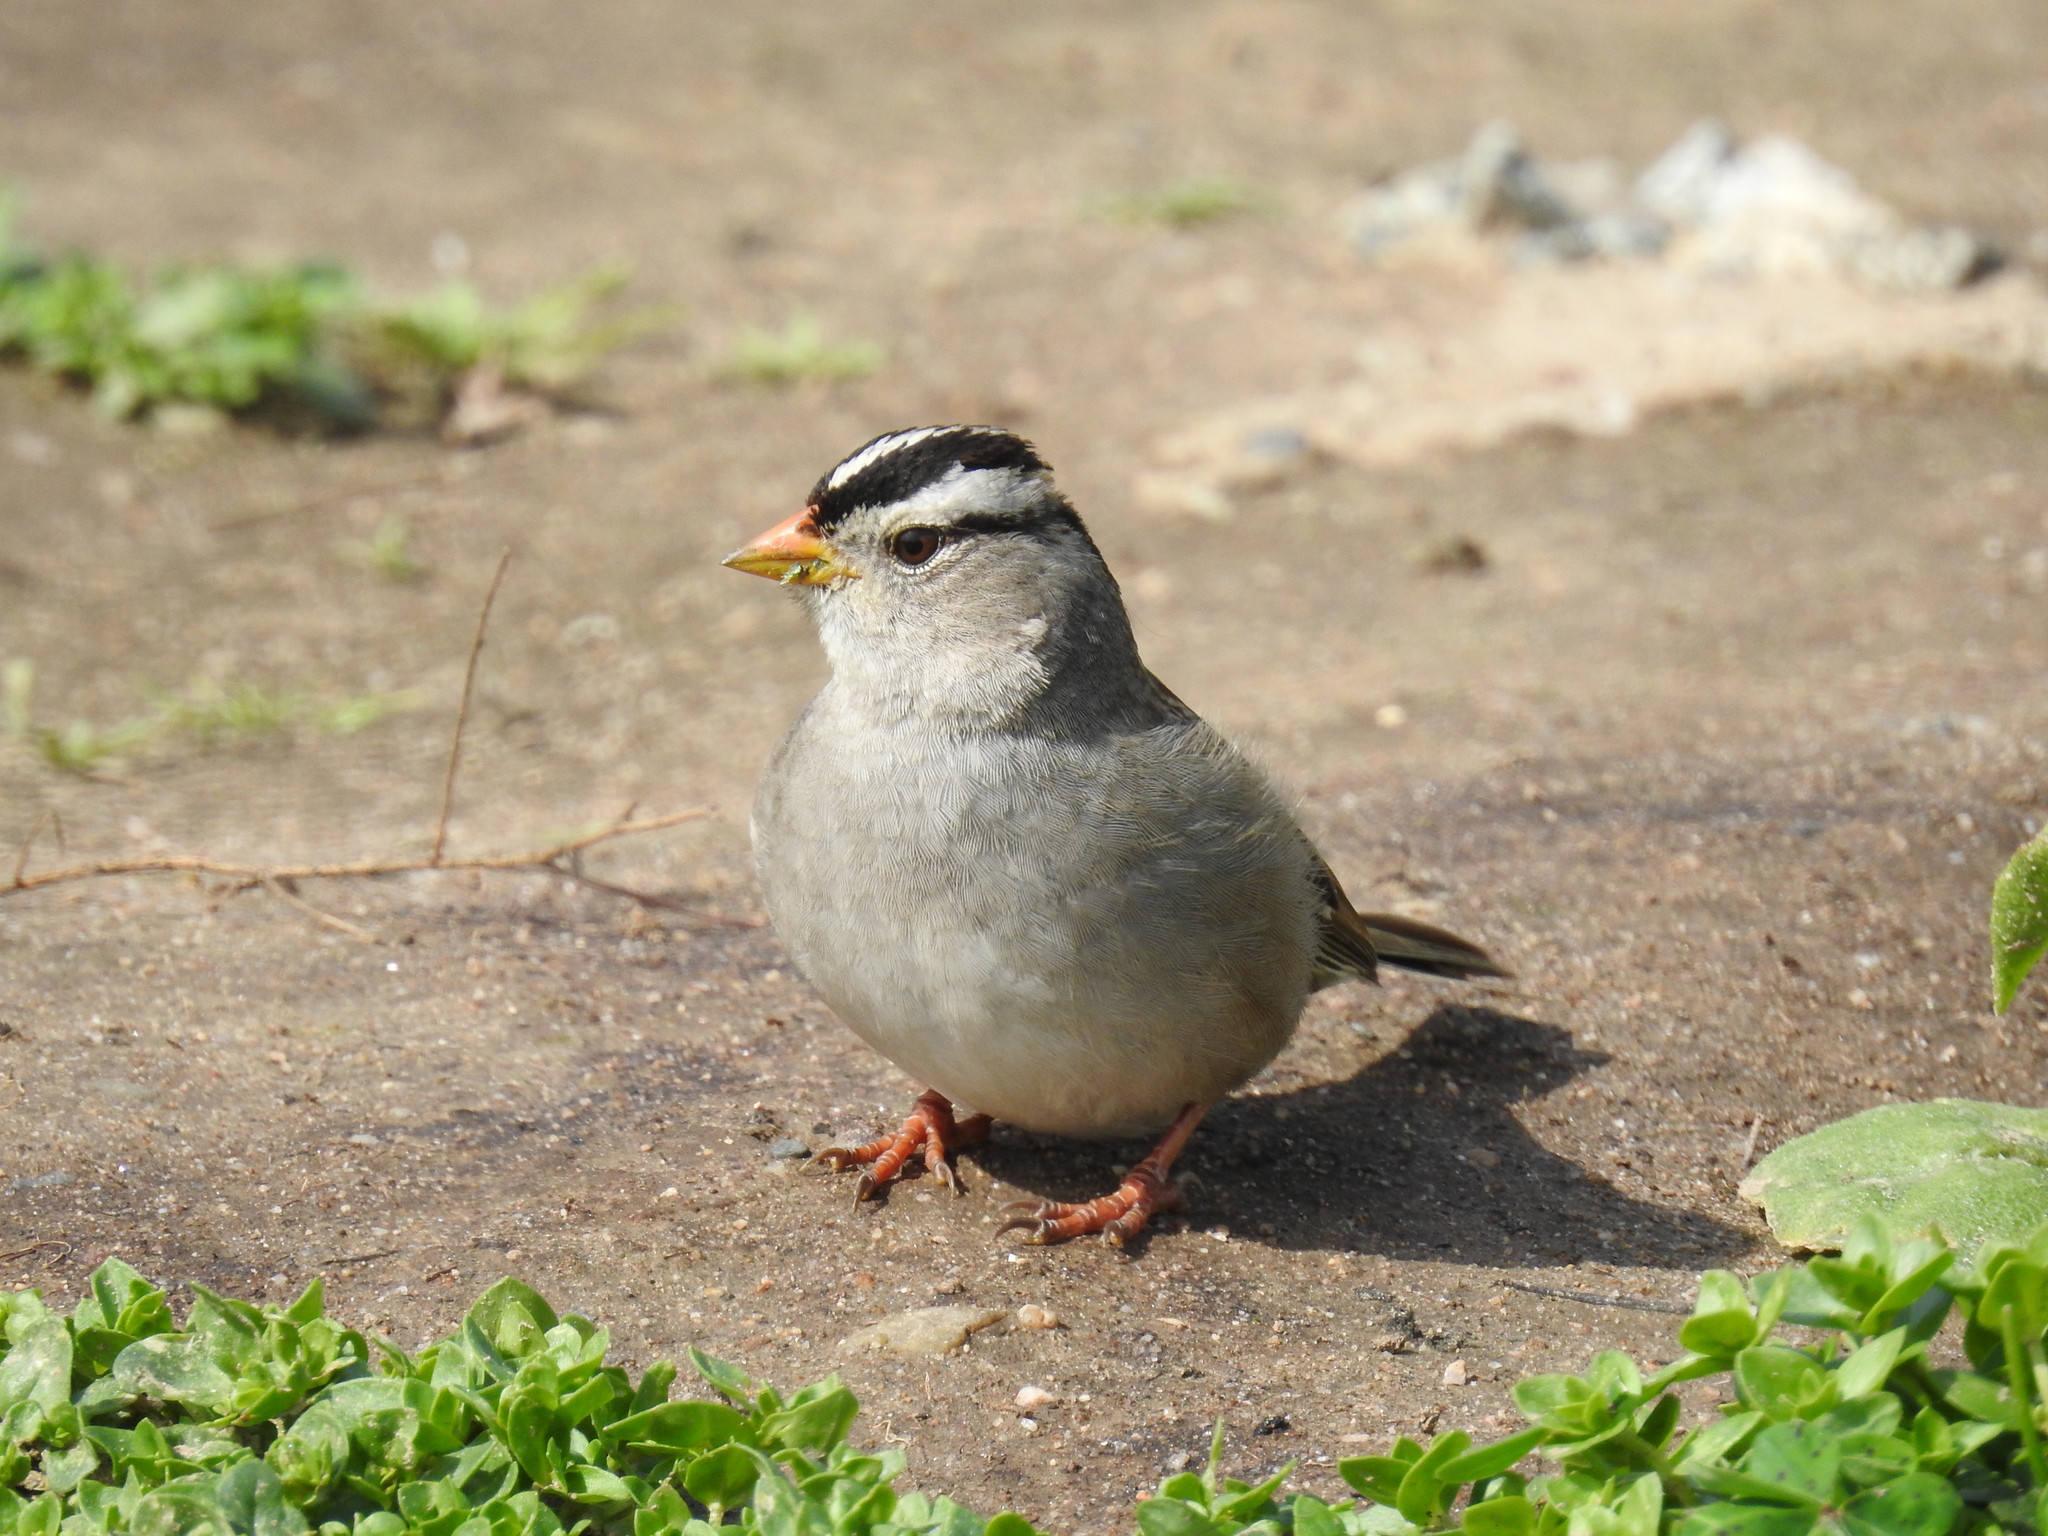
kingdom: Animalia
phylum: Chordata
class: Aves
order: Passeriformes
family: Passerellidae
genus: Zonotrichia
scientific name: Zonotrichia leucophrys
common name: White-crowned sparrow
